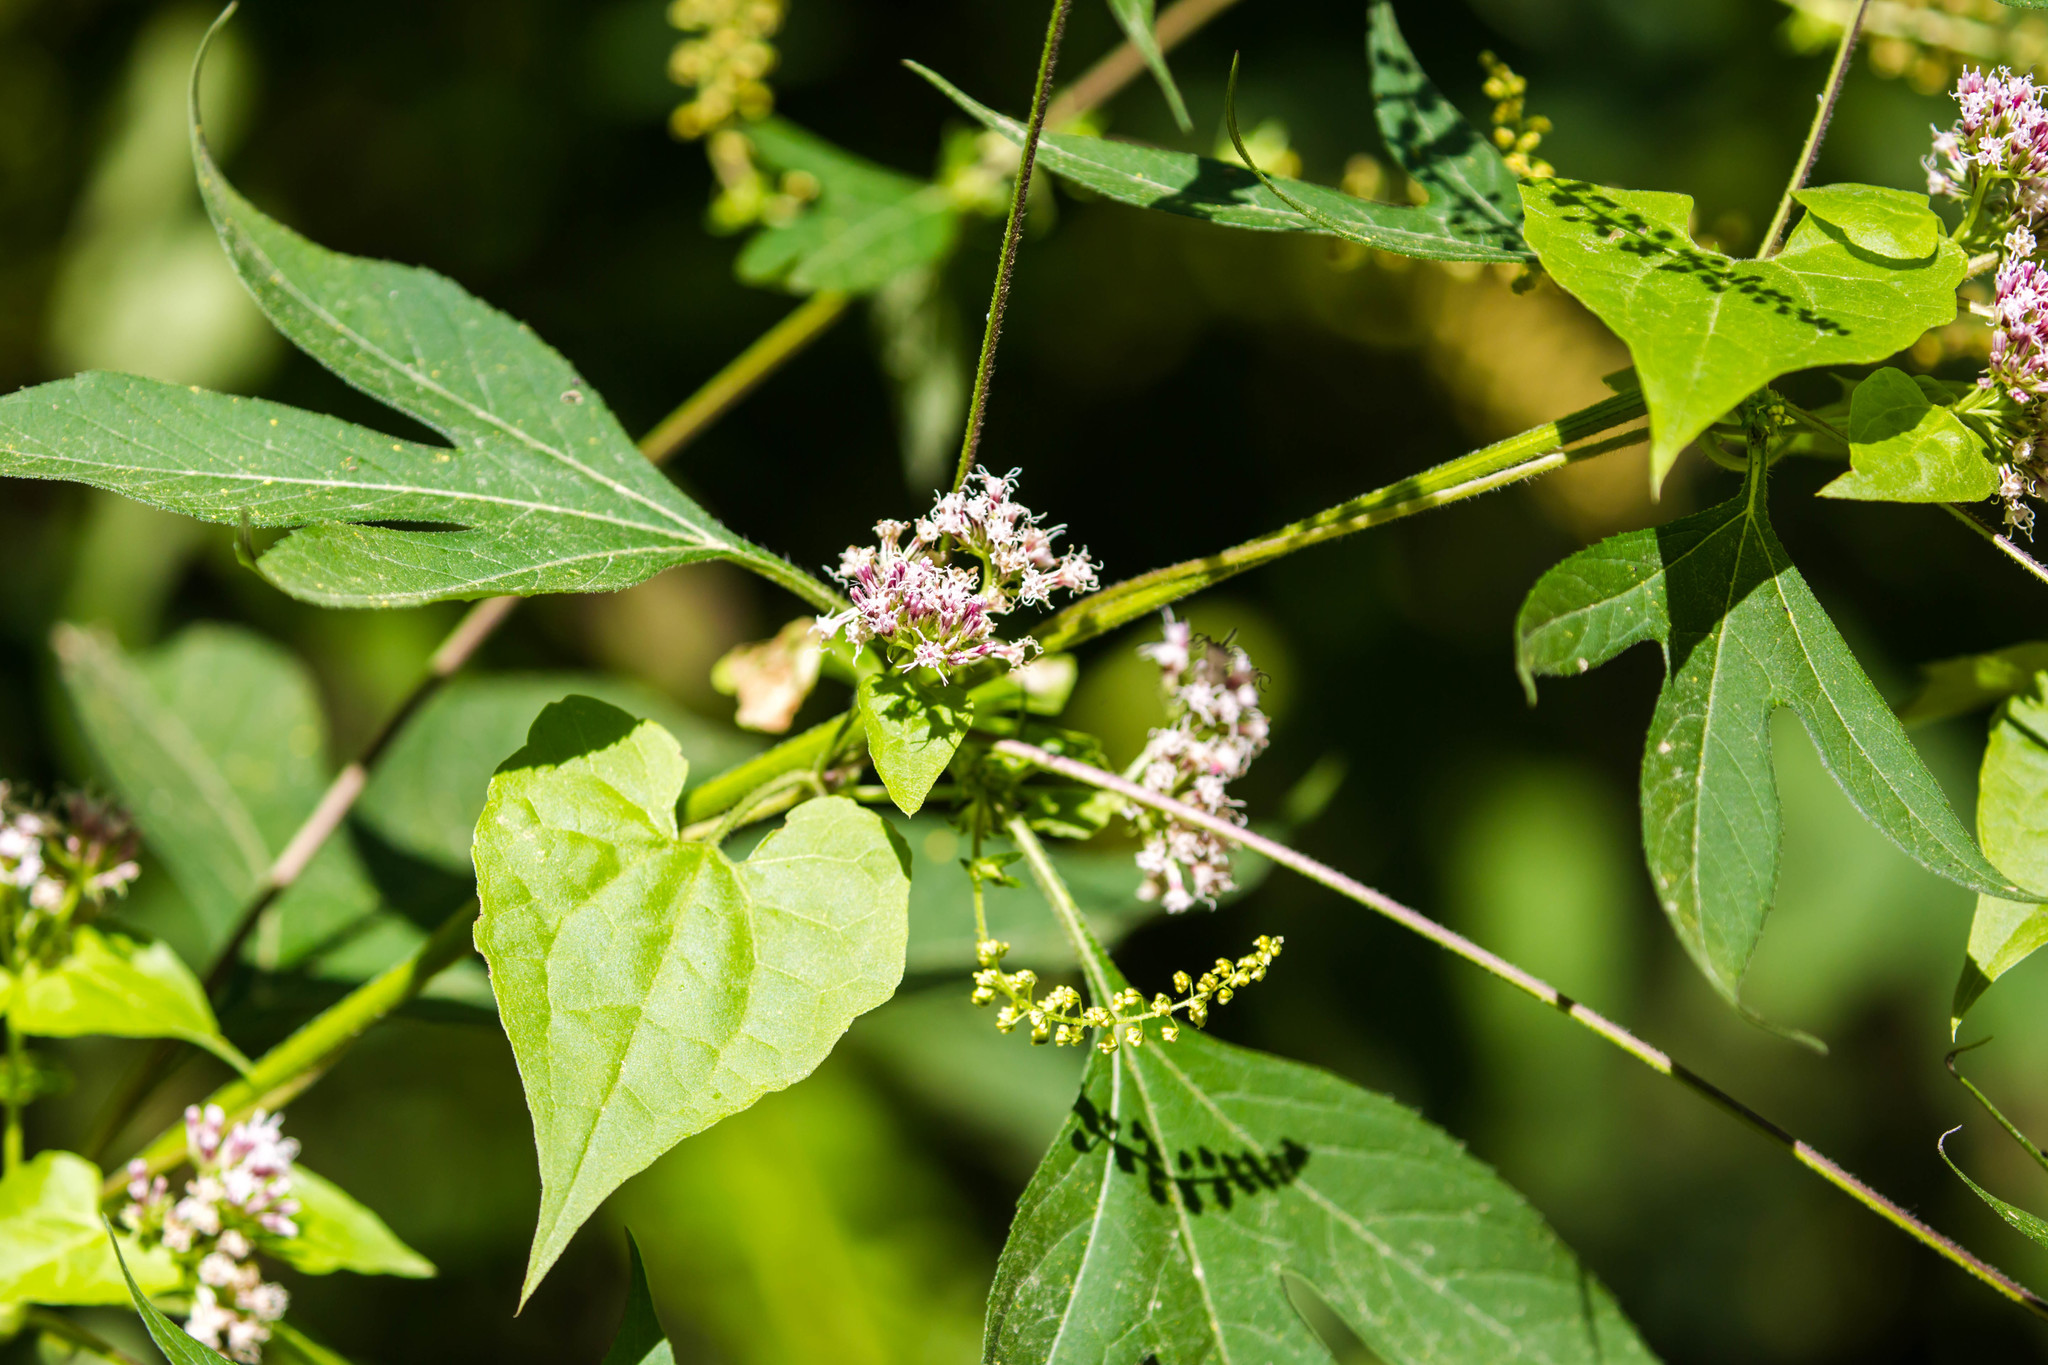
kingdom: Plantae
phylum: Tracheophyta
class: Magnoliopsida
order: Asterales
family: Asteraceae
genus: Mikania
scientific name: Mikania scandens
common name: Climbing hempvine
